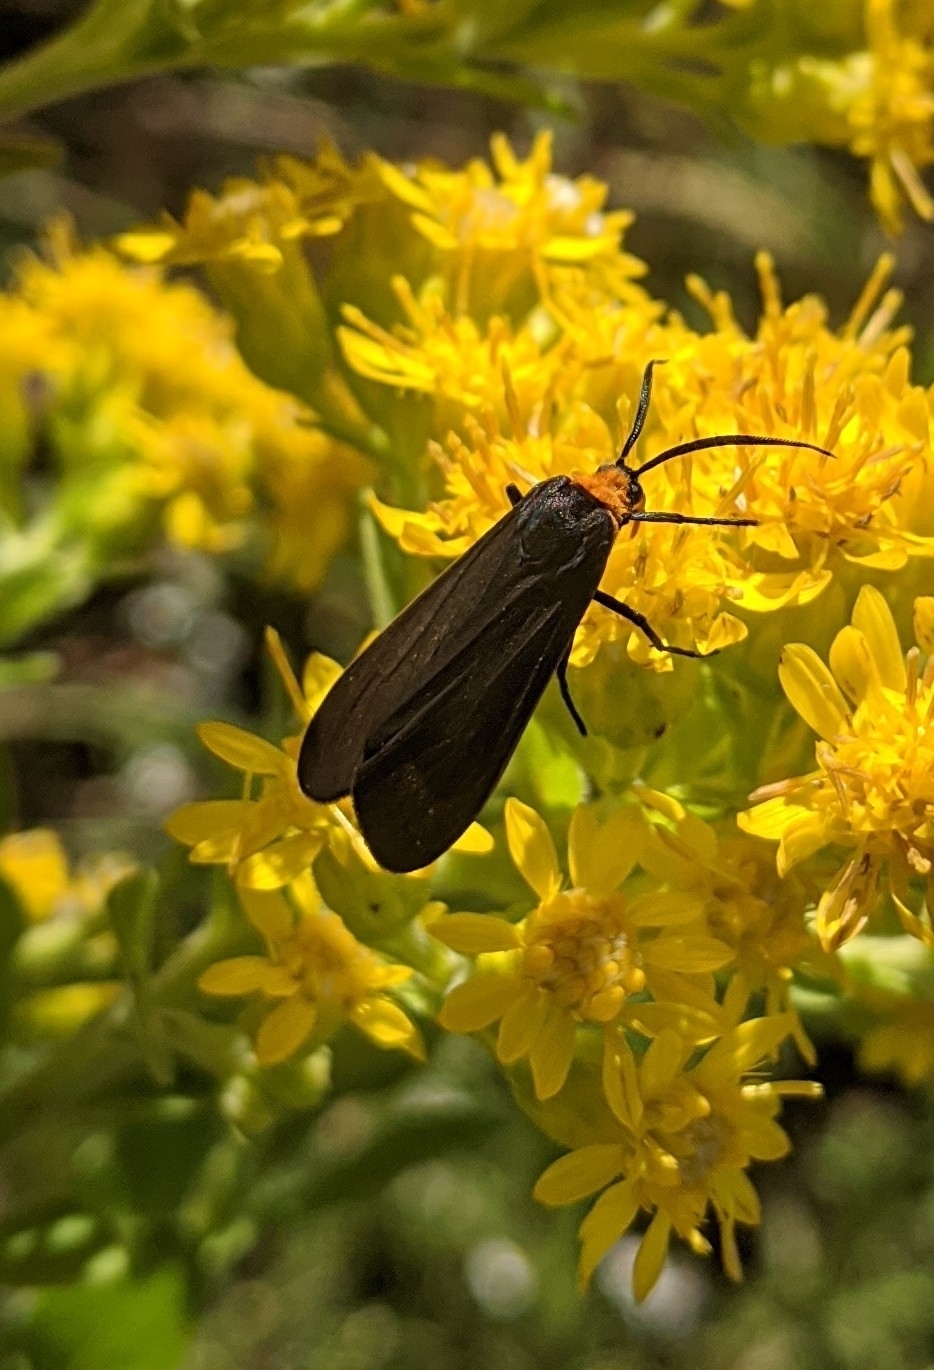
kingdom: Animalia
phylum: Arthropoda
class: Insecta
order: Lepidoptera
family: Erebidae
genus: Cisseps
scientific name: Cisseps fulvicollis
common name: Yellow-collared scape moth
